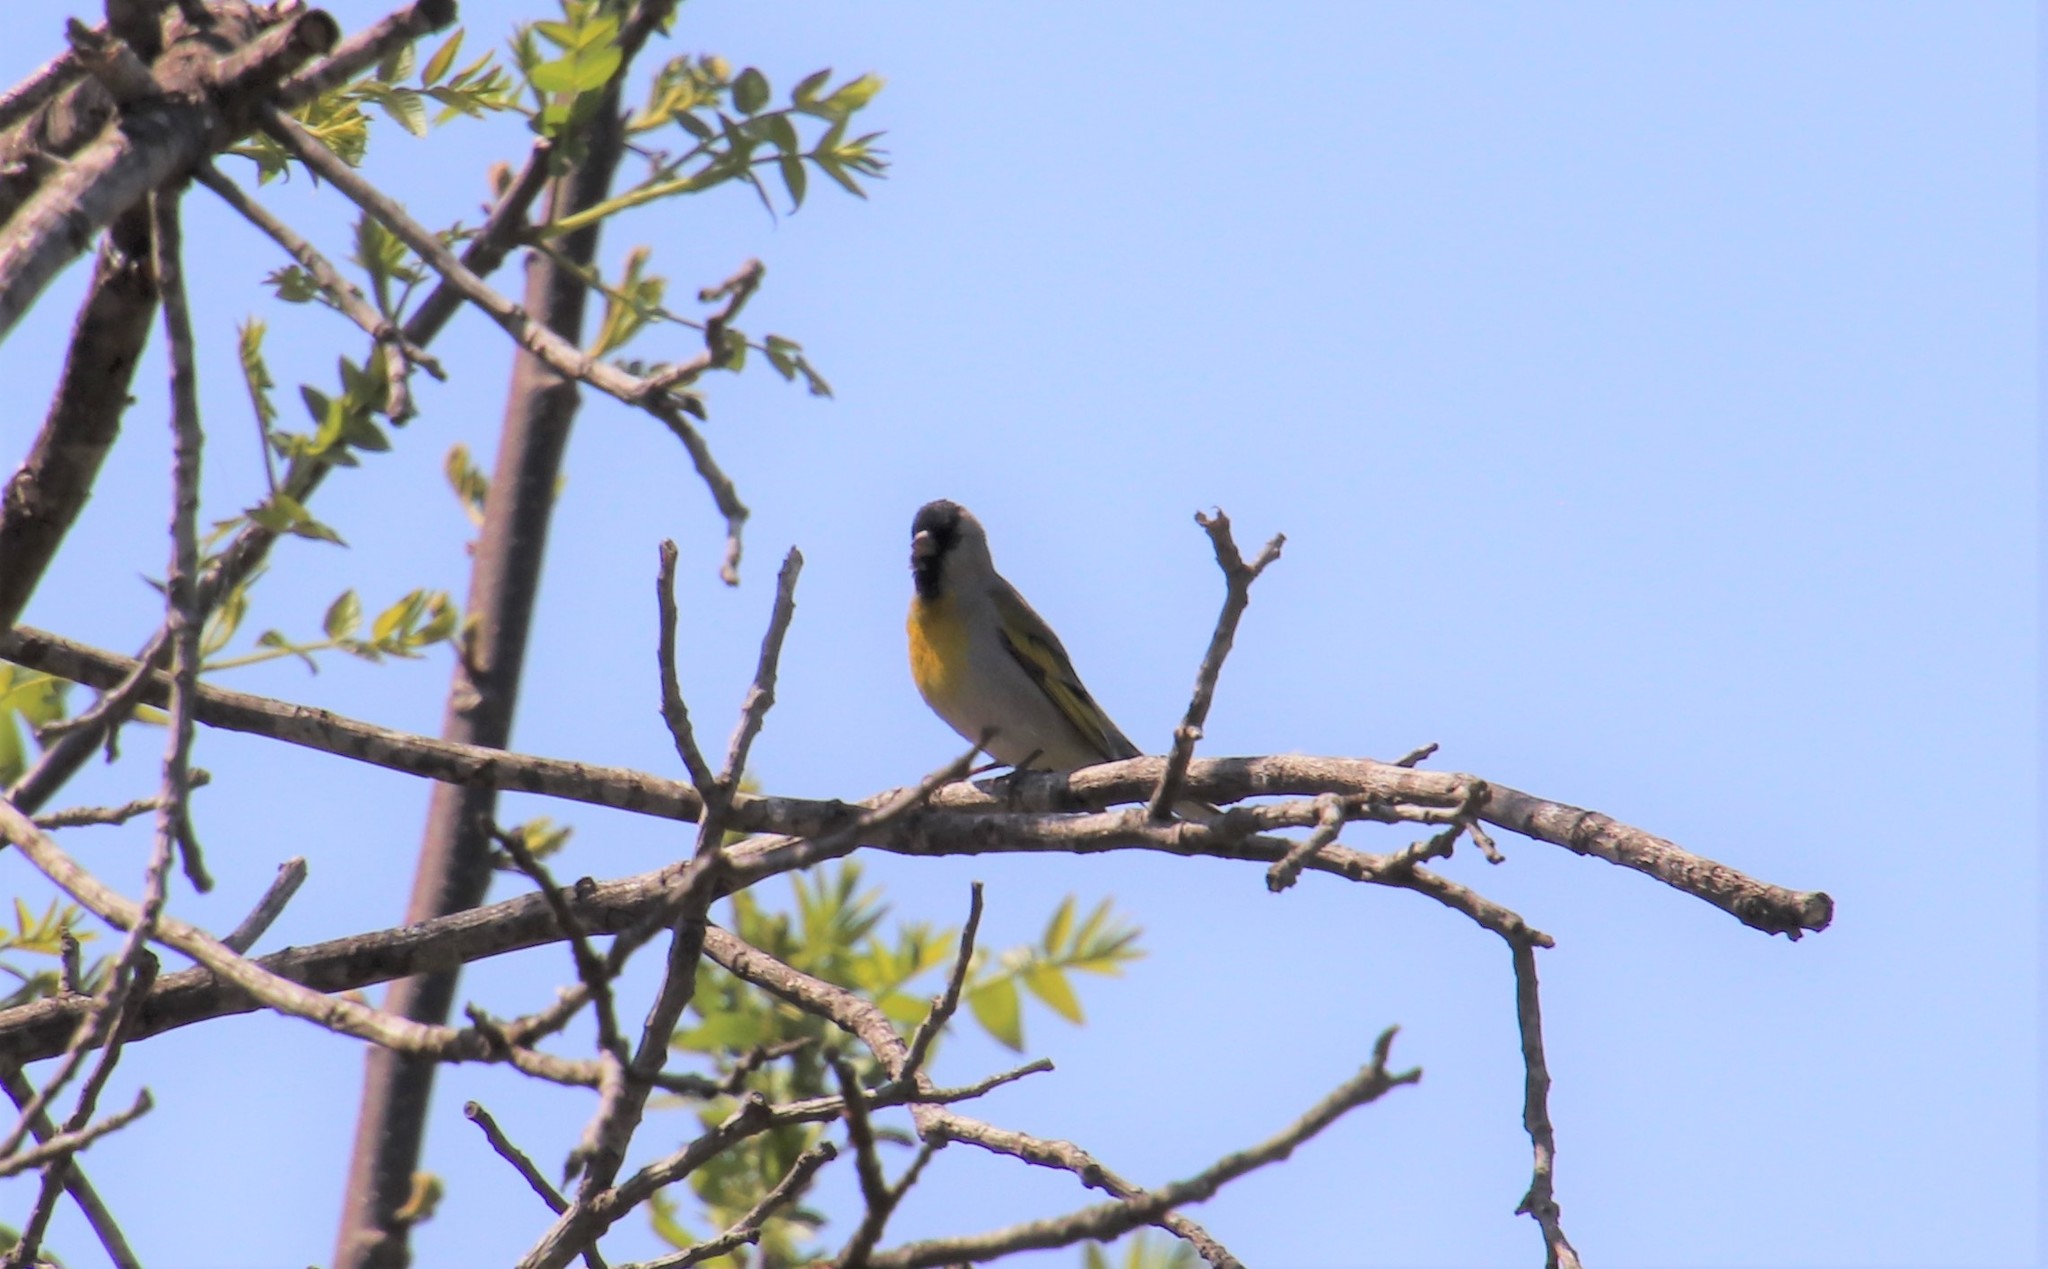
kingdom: Animalia
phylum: Chordata
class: Aves
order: Passeriformes
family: Fringillidae
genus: Spinus
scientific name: Spinus lawrencei
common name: Lawrence's goldfinch
